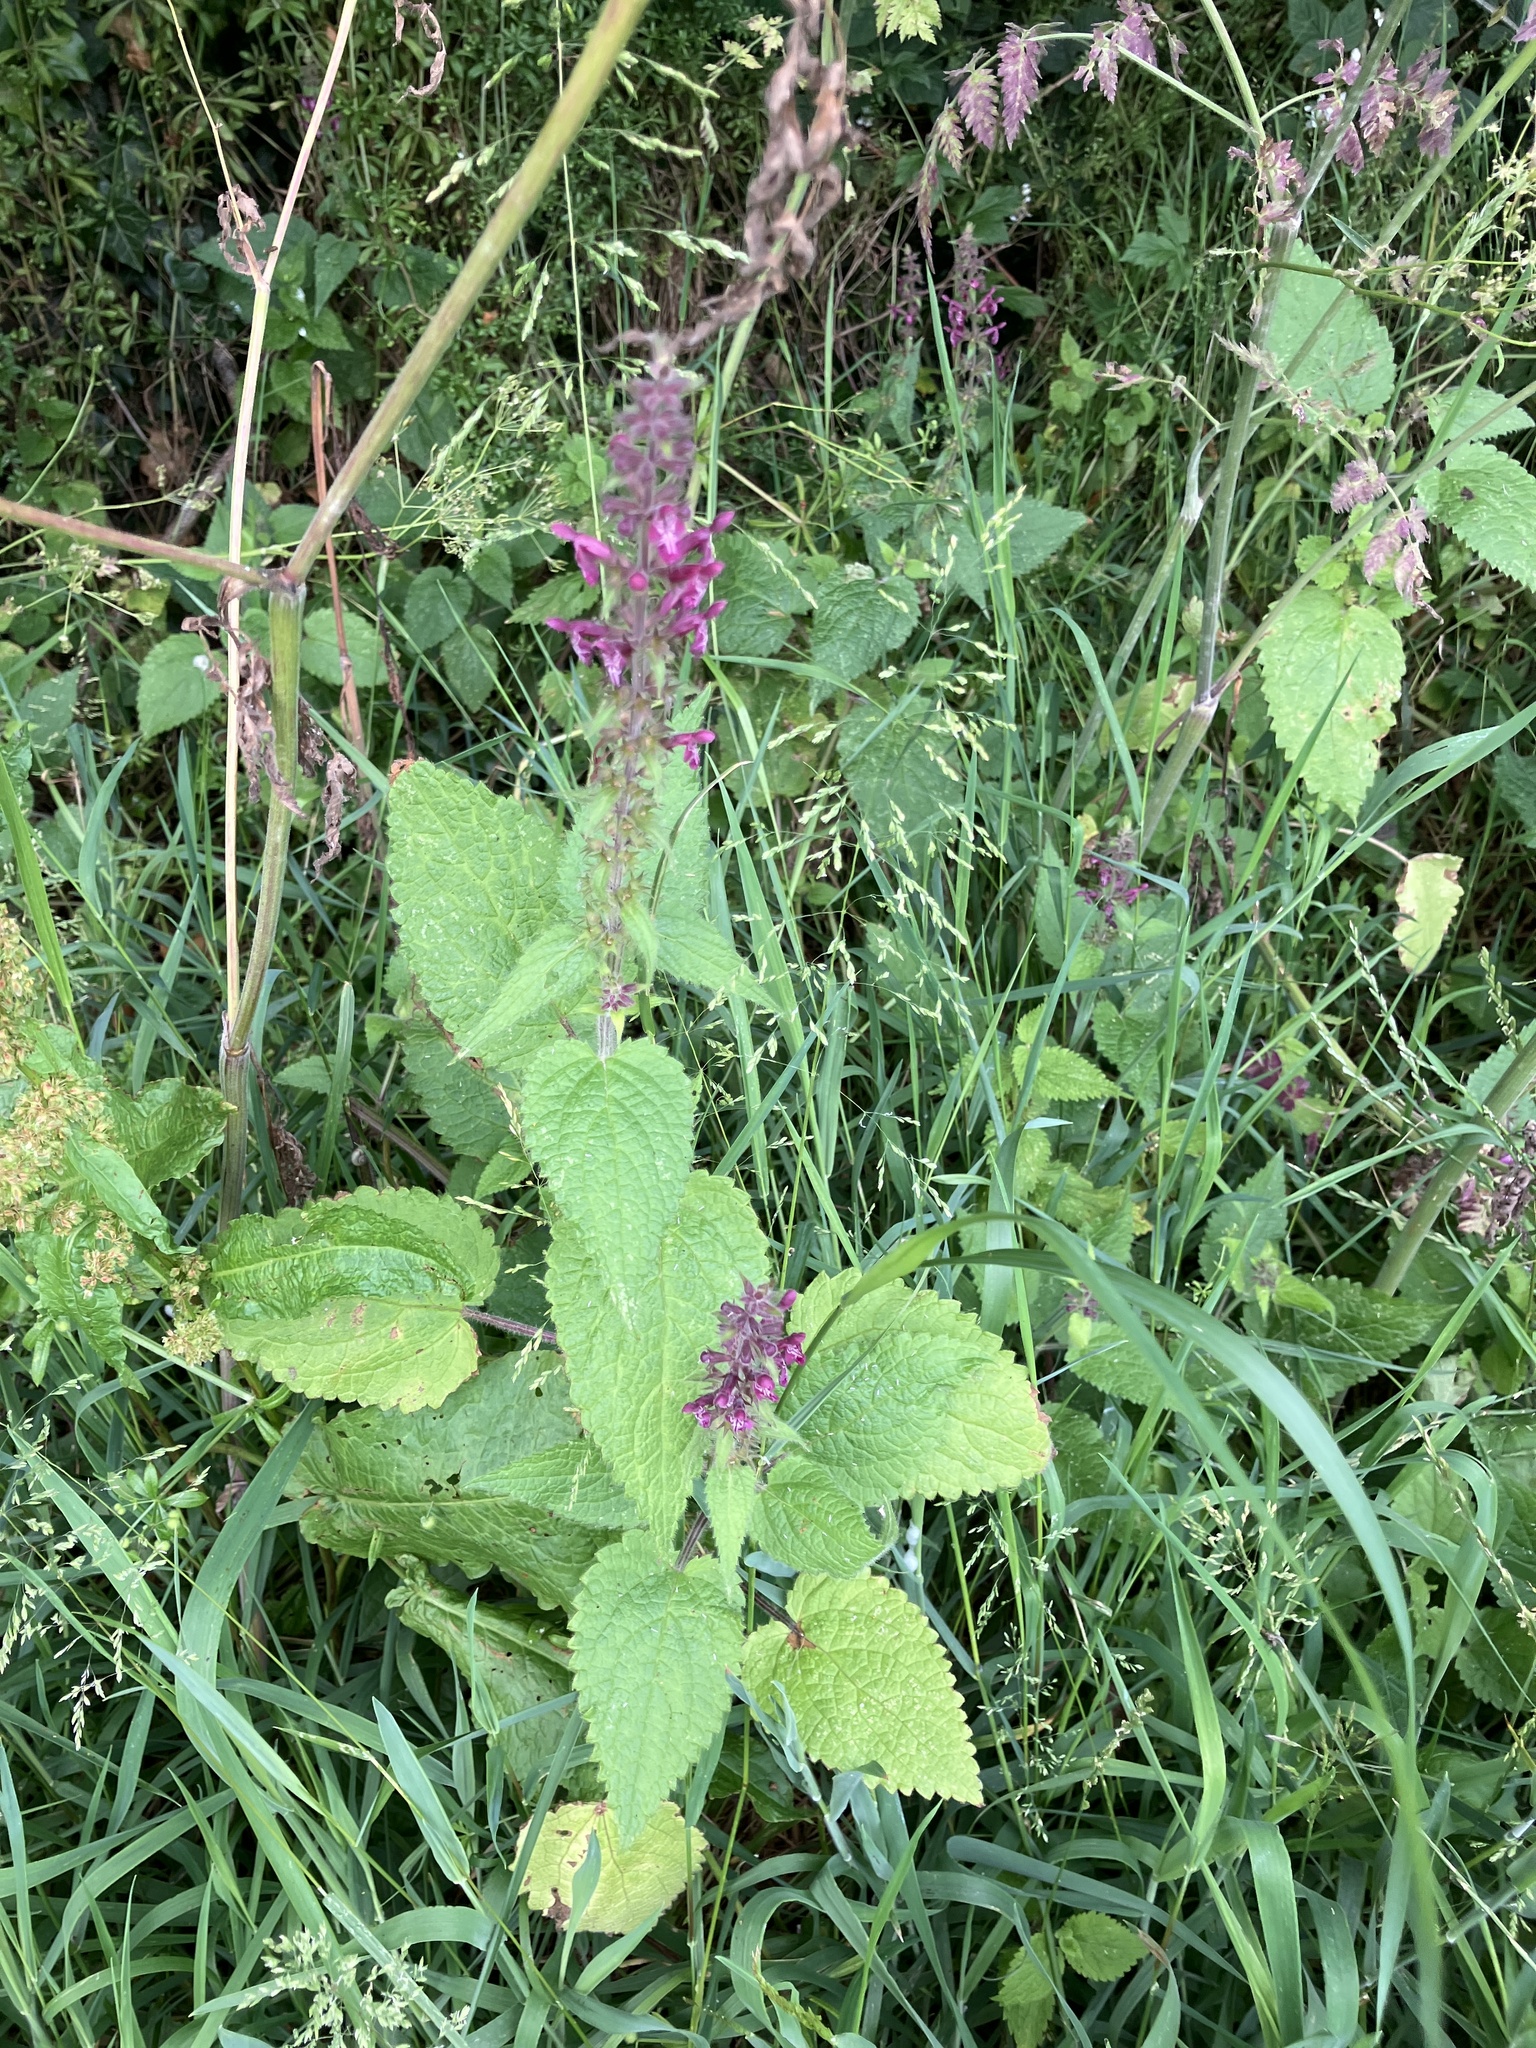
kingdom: Plantae
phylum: Tracheophyta
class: Magnoliopsida
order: Lamiales
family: Lamiaceae
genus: Stachys
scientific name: Stachys sylvatica
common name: Hedge woundwort
